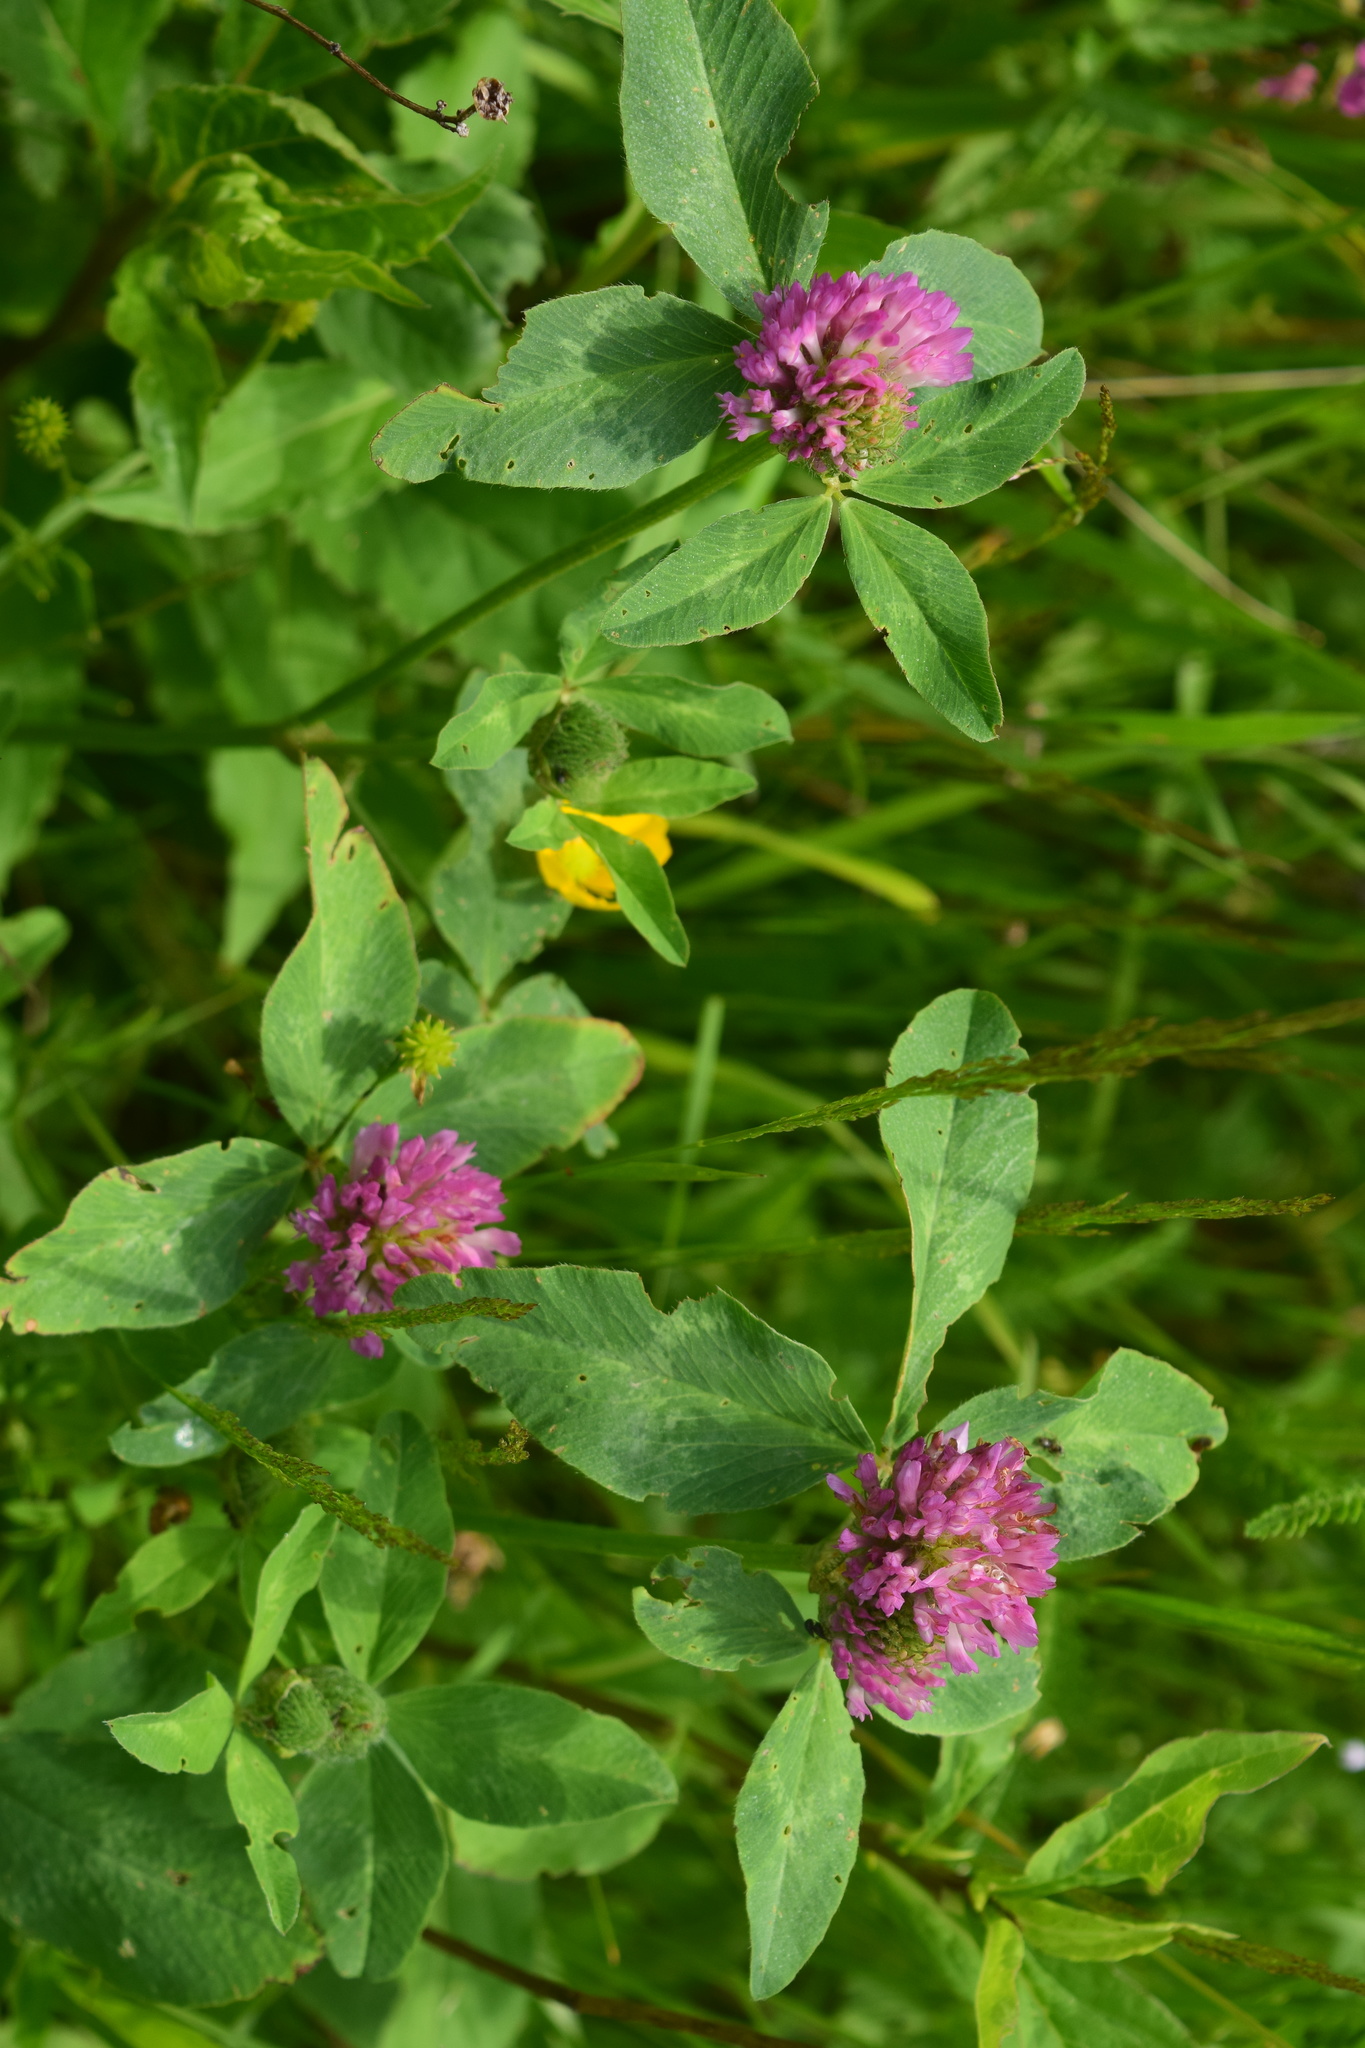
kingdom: Plantae
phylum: Tracheophyta
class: Magnoliopsida
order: Fabales
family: Fabaceae
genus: Trifolium
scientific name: Trifolium pratense
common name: Red clover
